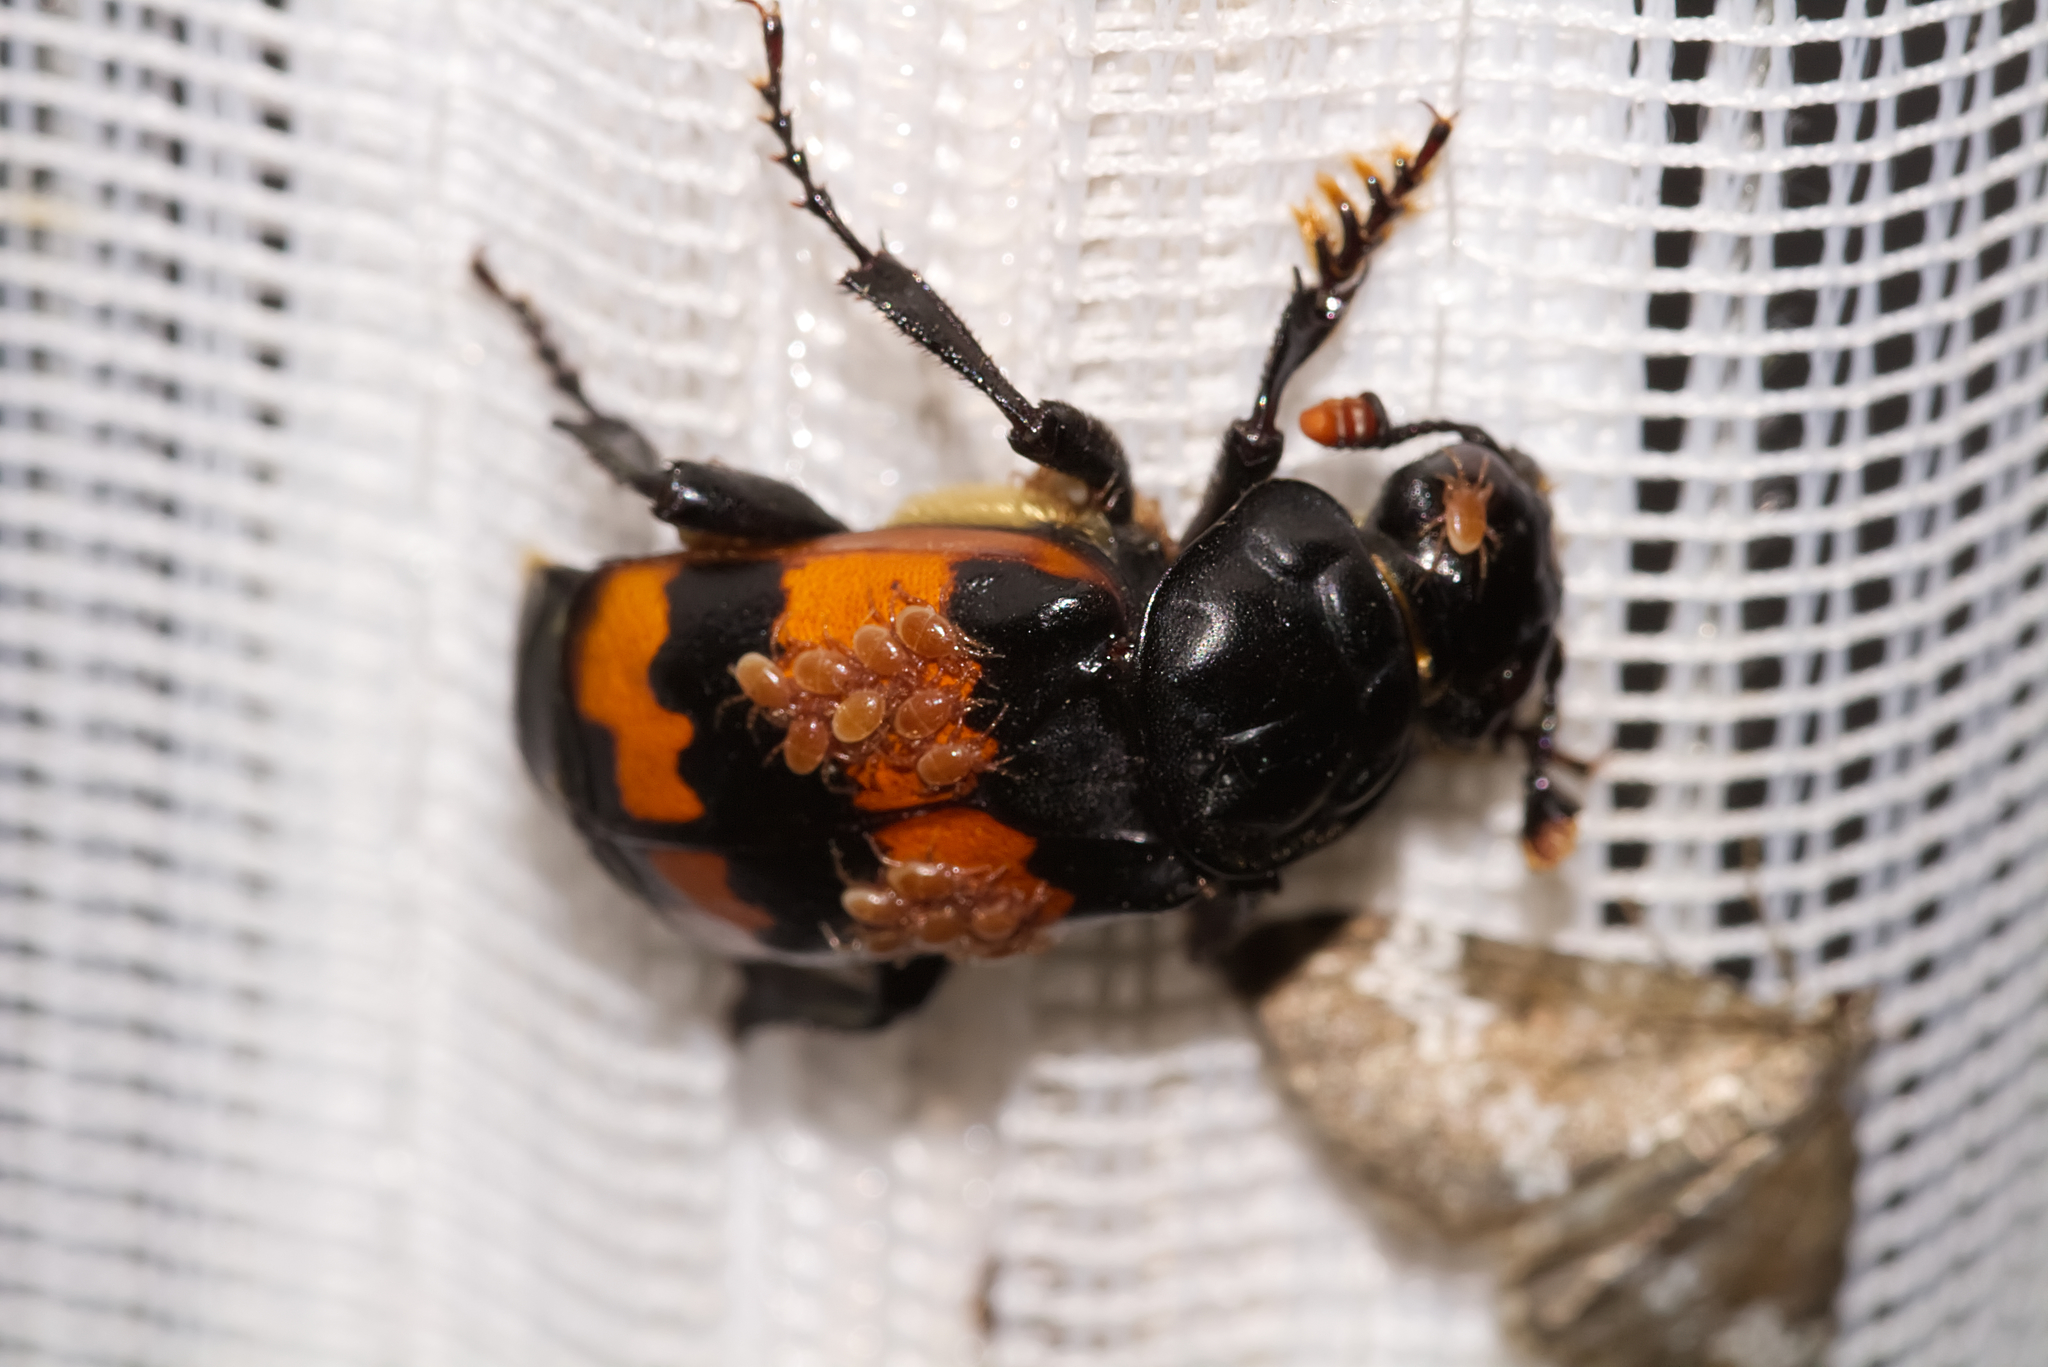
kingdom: Animalia
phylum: Arthropoda
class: Insecta
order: Coleoptera
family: Staphylinidae
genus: Nicrophorus
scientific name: Nicrophorus investigator
